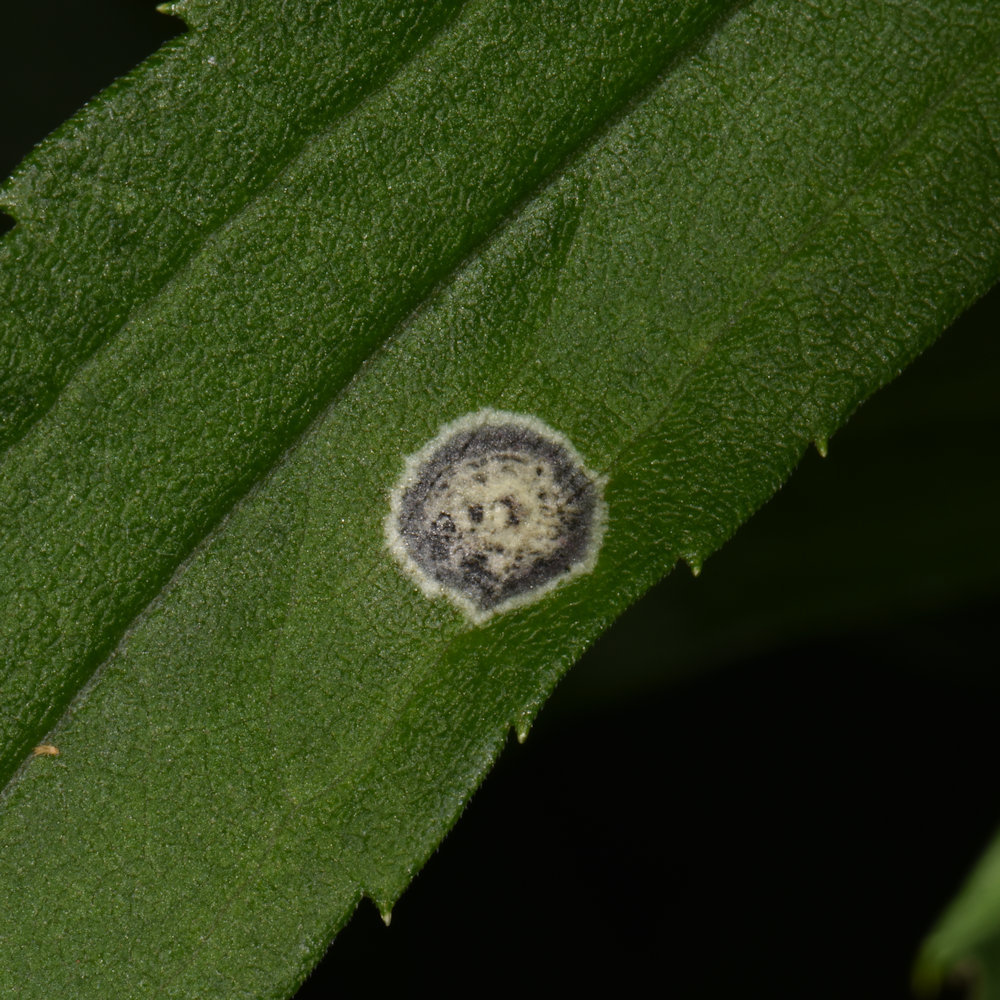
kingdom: Animalia
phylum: Arthropoda
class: Insecta
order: Diptera
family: Cecidomyiidae
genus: Asteromyia
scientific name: Asteromyia carbonifera
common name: Carbonifera goldenrod gall midge
